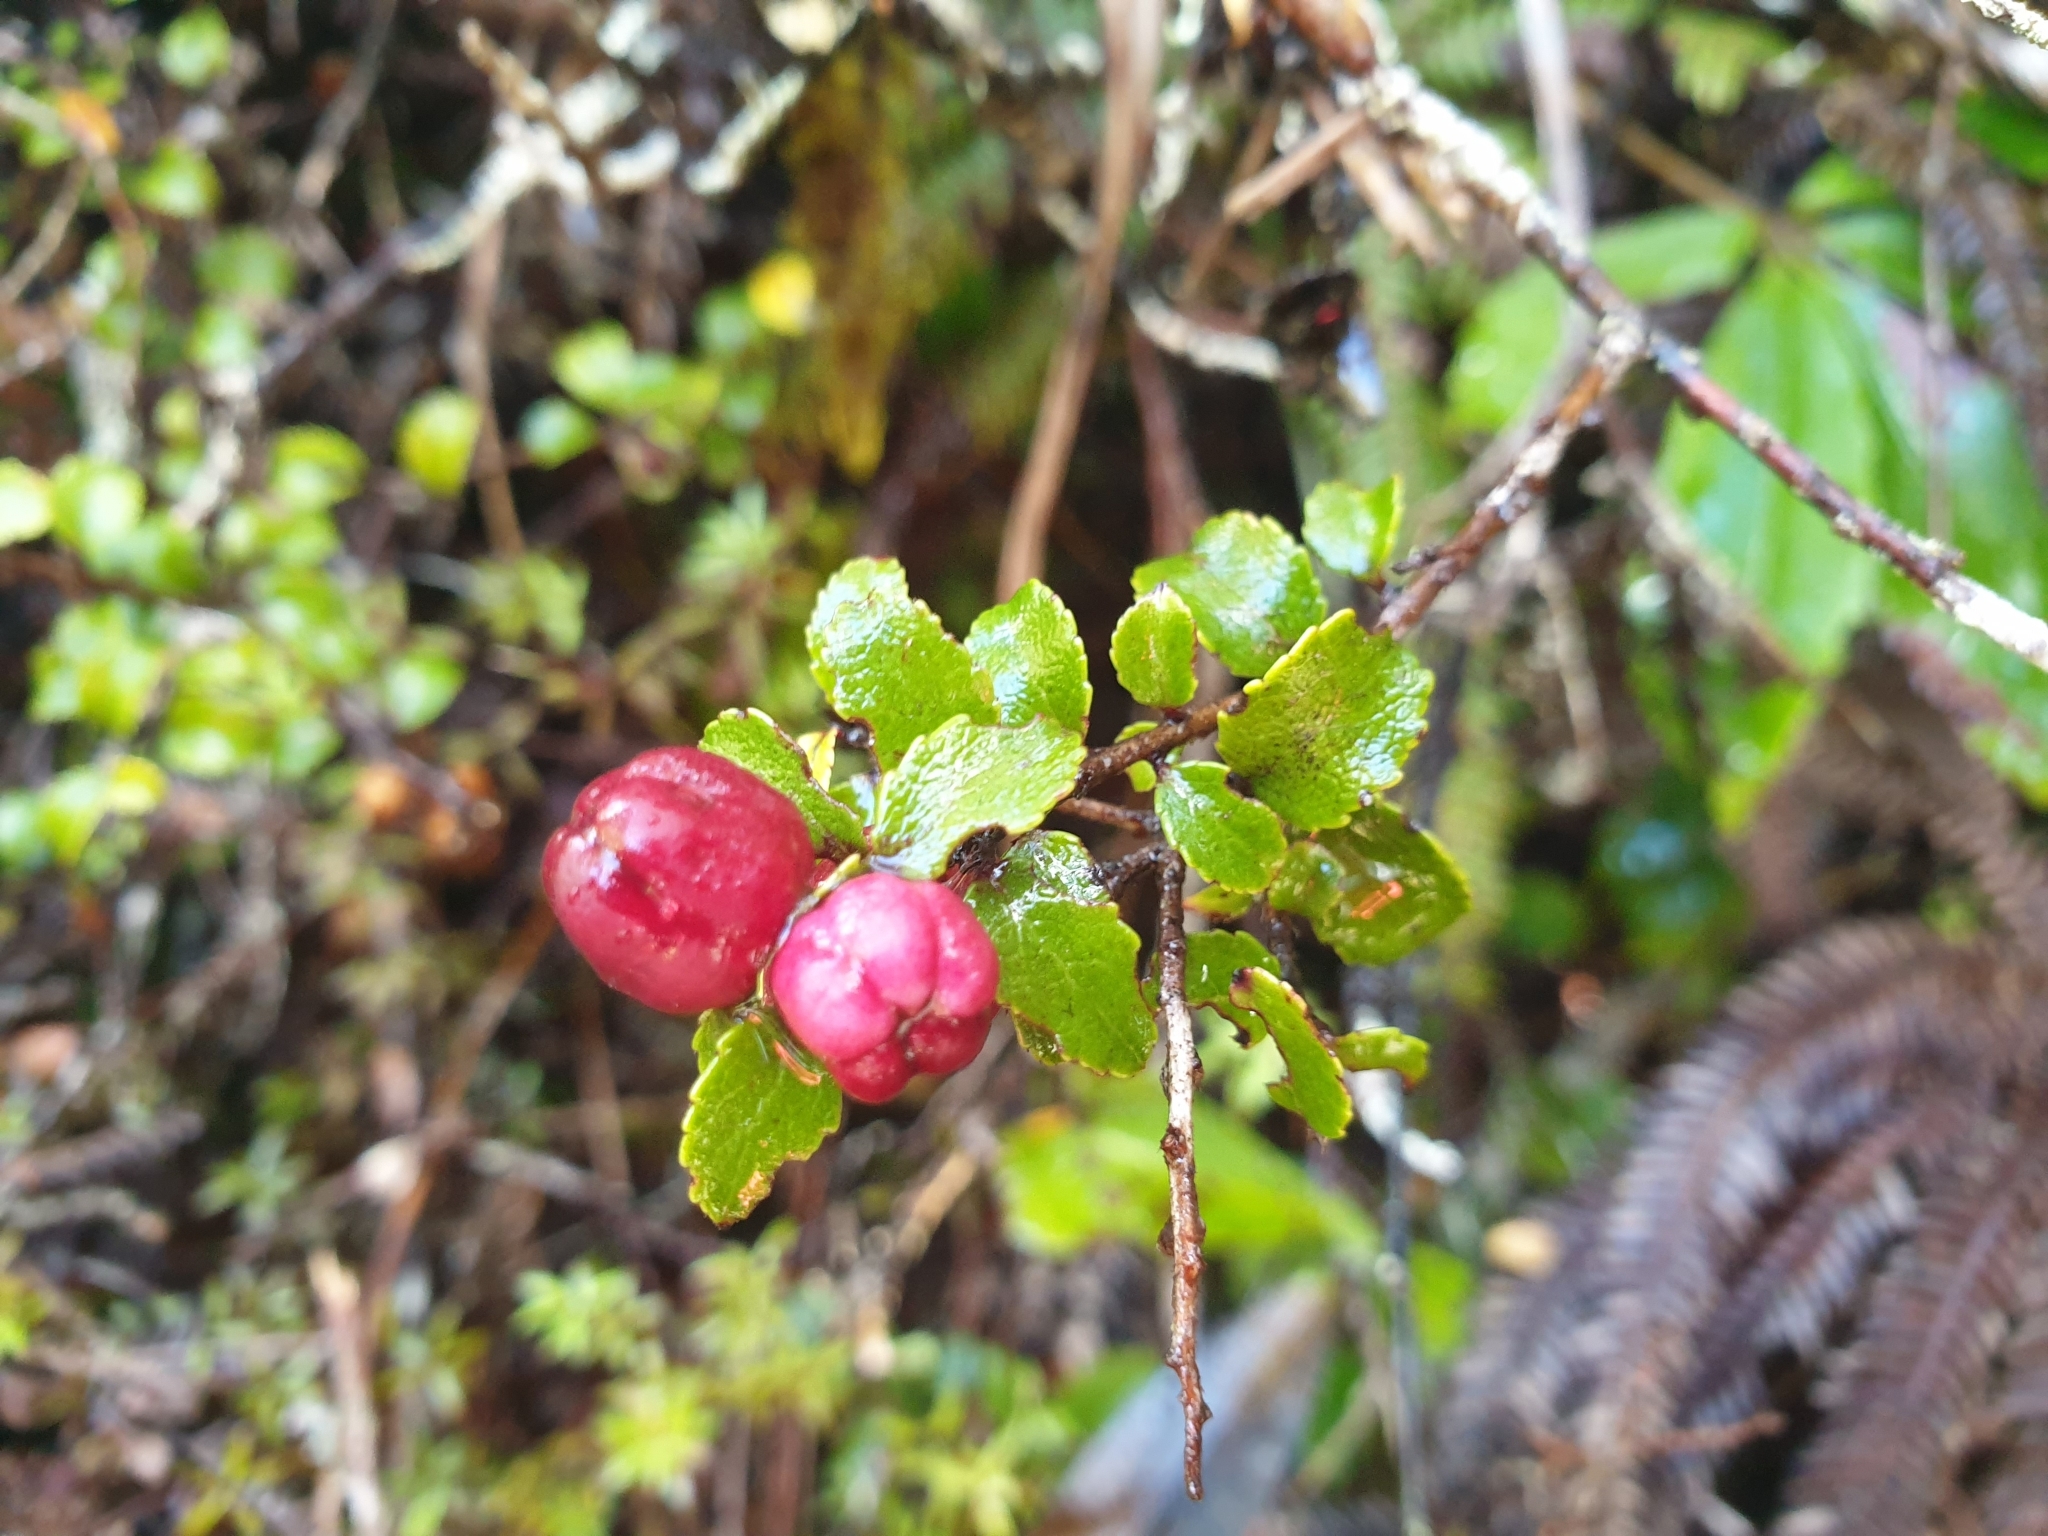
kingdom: Plantae
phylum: Tracheophyta
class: Magnoliopsida
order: Ericales
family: Ericaceae
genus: Gaultheria
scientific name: Gaultheria antipoda
